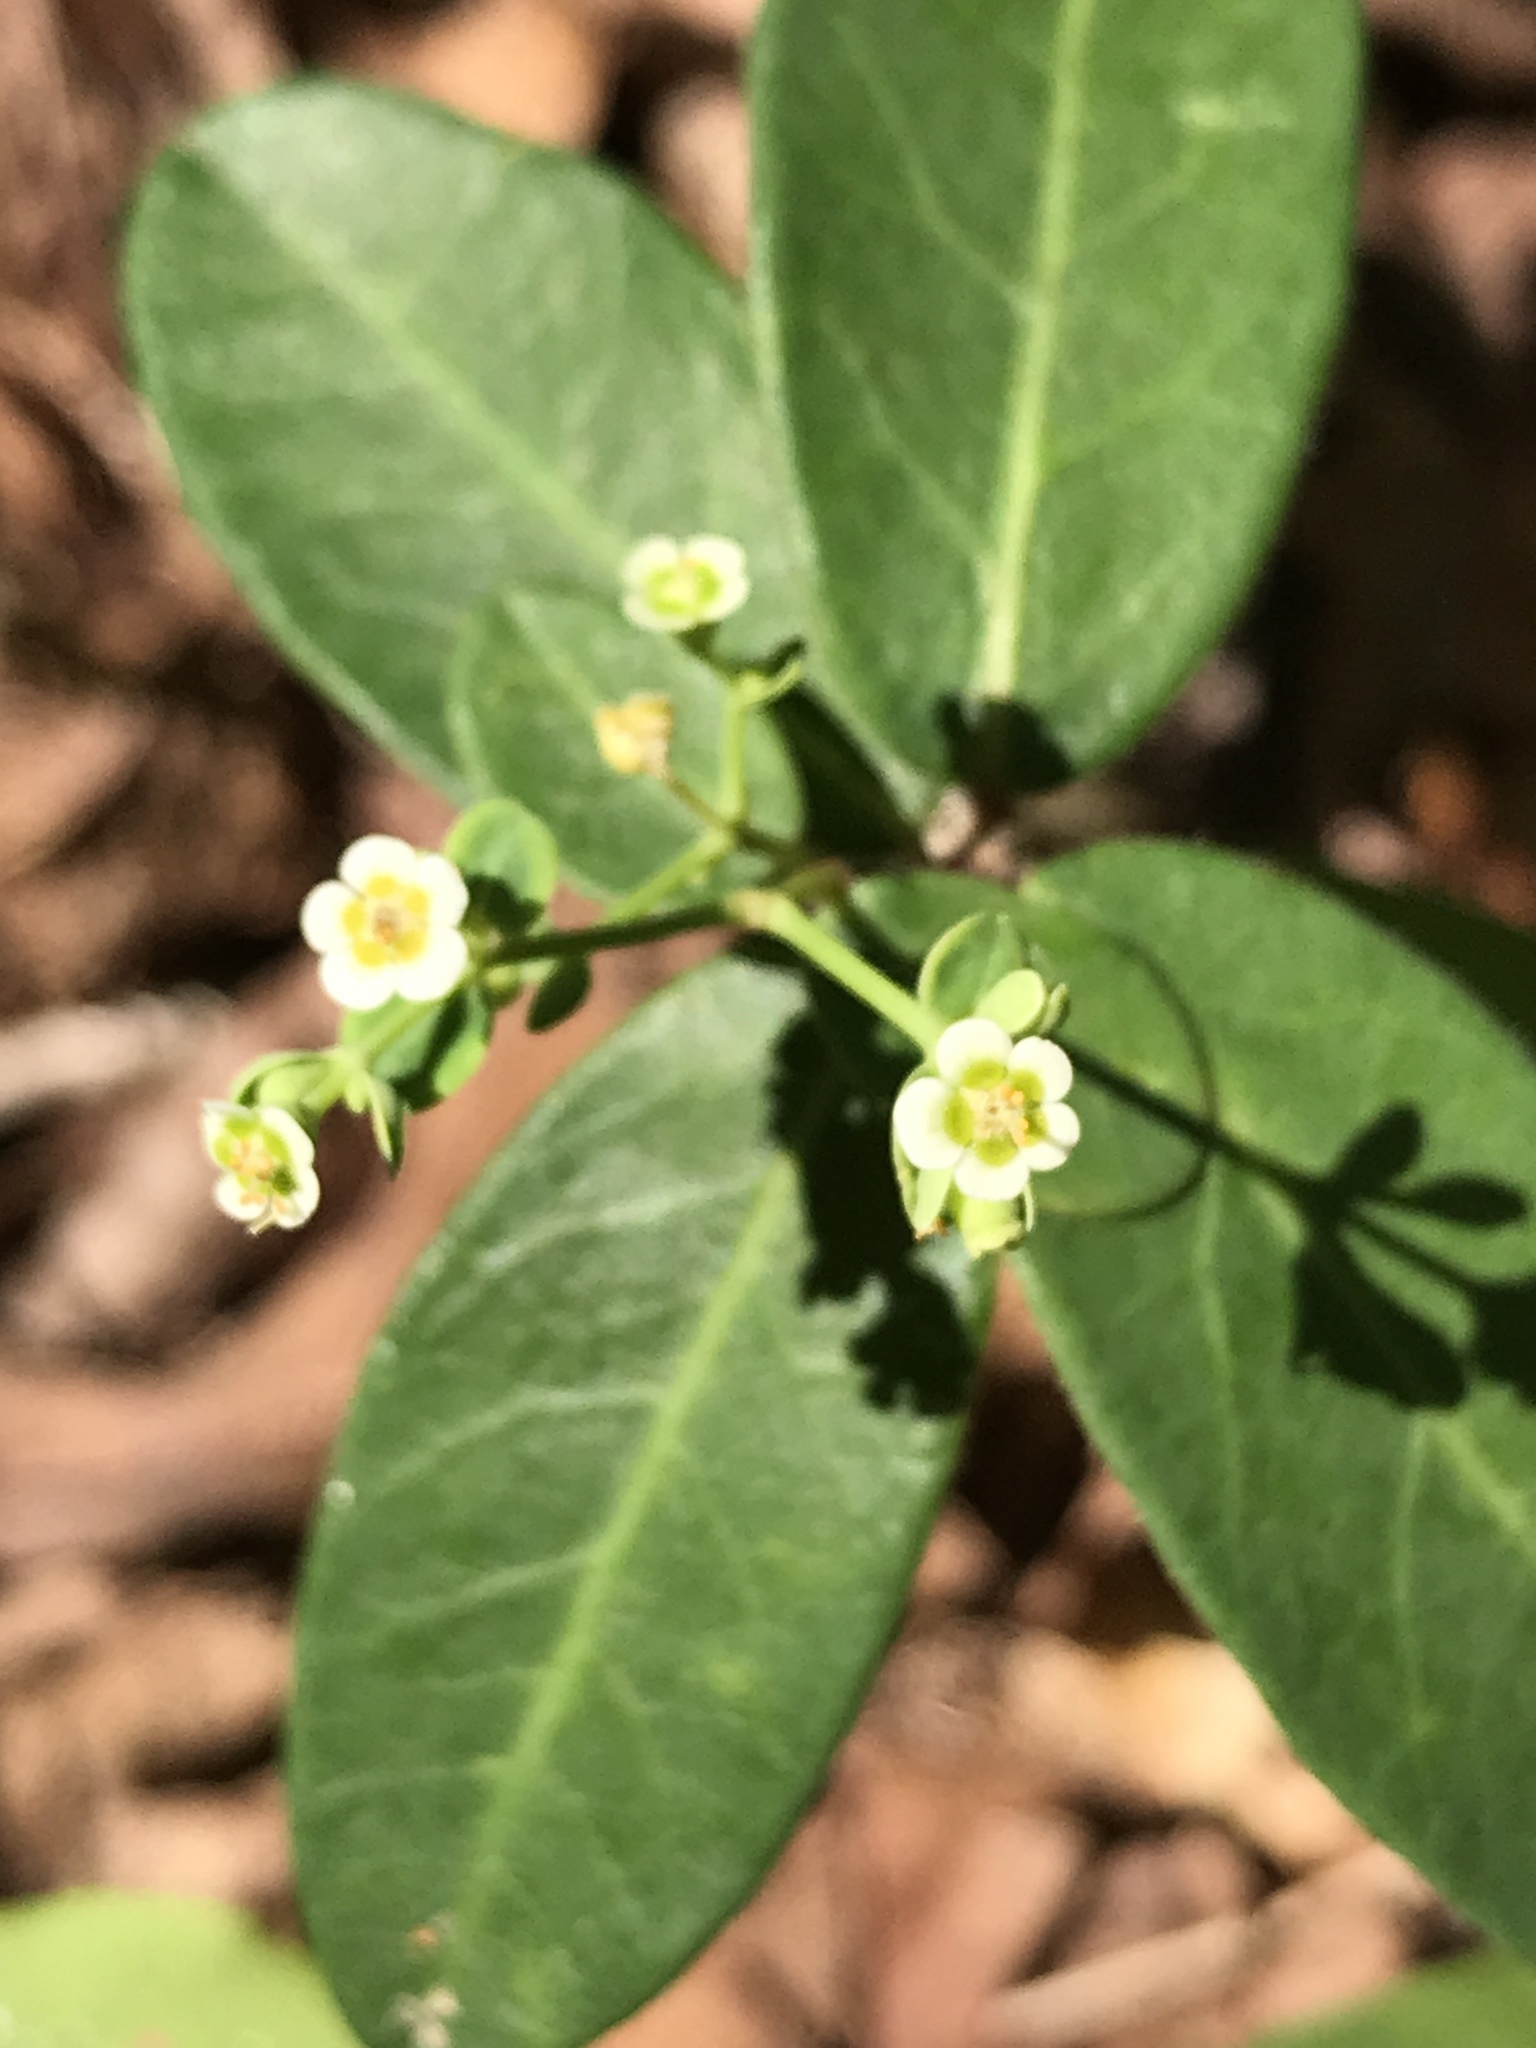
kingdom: Plantae
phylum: Tracheophyta
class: Magnoliopsida
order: Malpighiales
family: Euphorbiaceae
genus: Euphorbia
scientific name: Euphorbia corollata
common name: Flowering spurge
